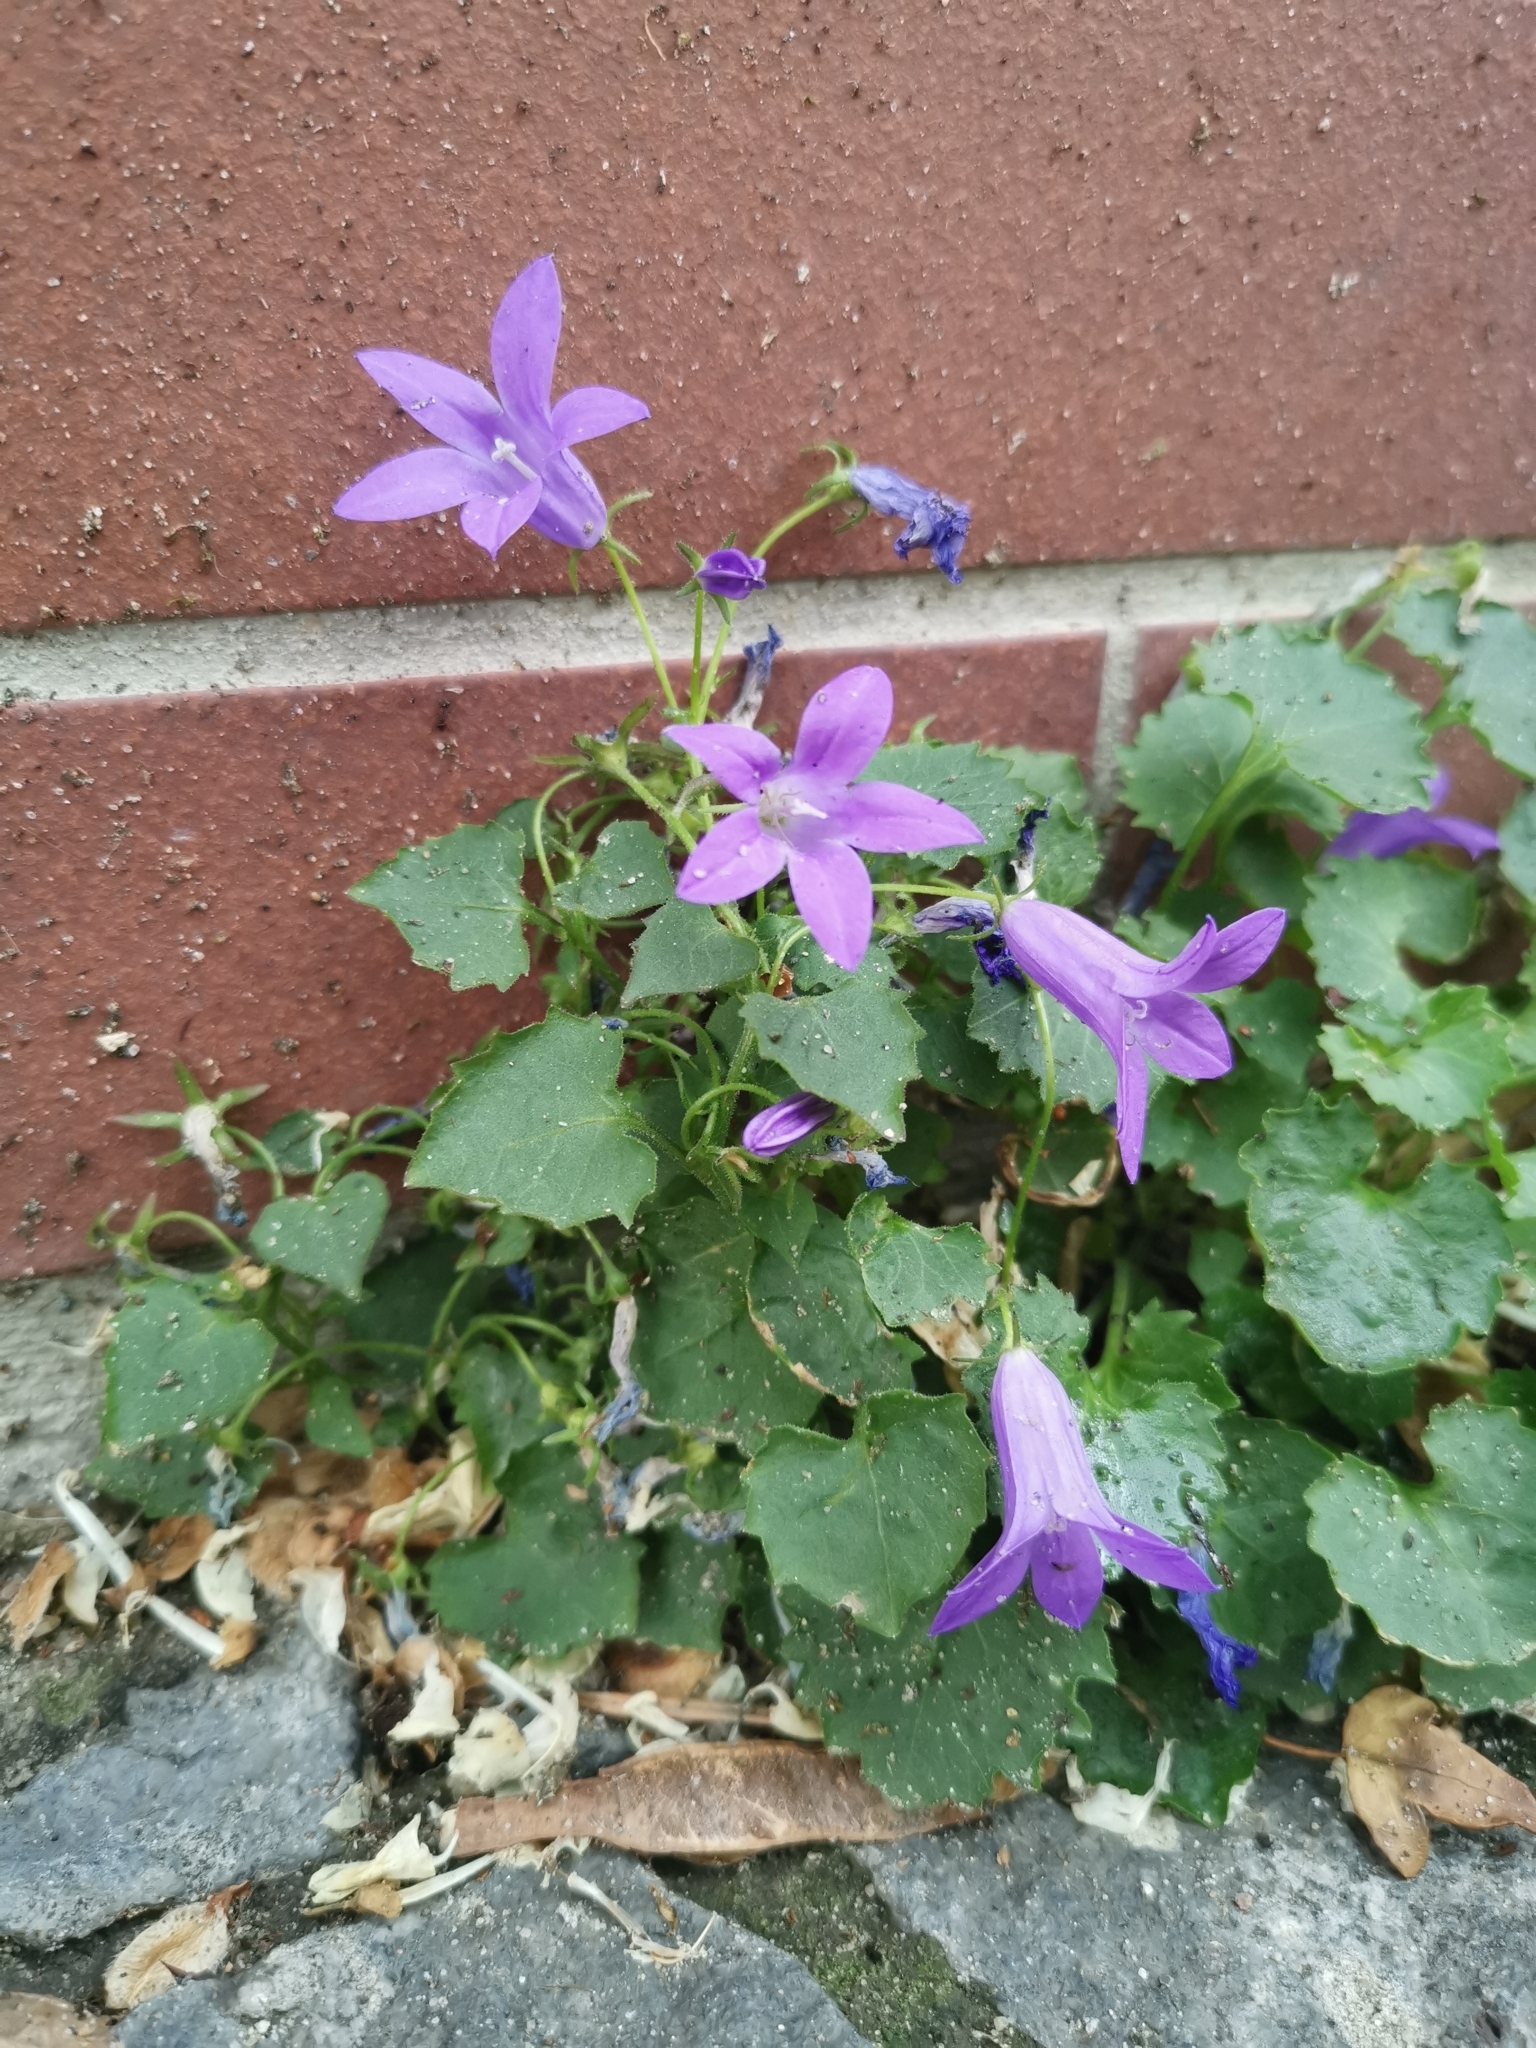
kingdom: Plantae
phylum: Tracheophyta
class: Magnoliopsida
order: Asterales
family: Campanulaceae
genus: Campanula
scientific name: Campanula poscharskyana
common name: Trailing bellflower
